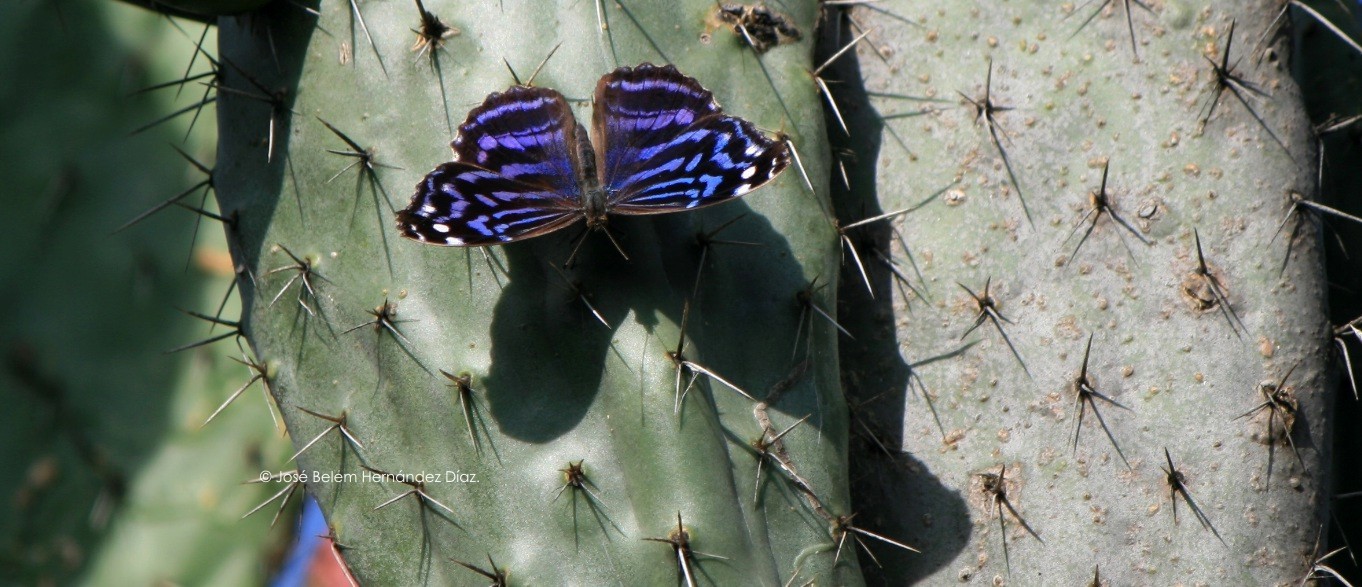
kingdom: Animalia
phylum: Arthropoda
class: Insecta
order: Lepidoptera
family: Nymphalidae
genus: Myscelia
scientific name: Myscelia ethusa
